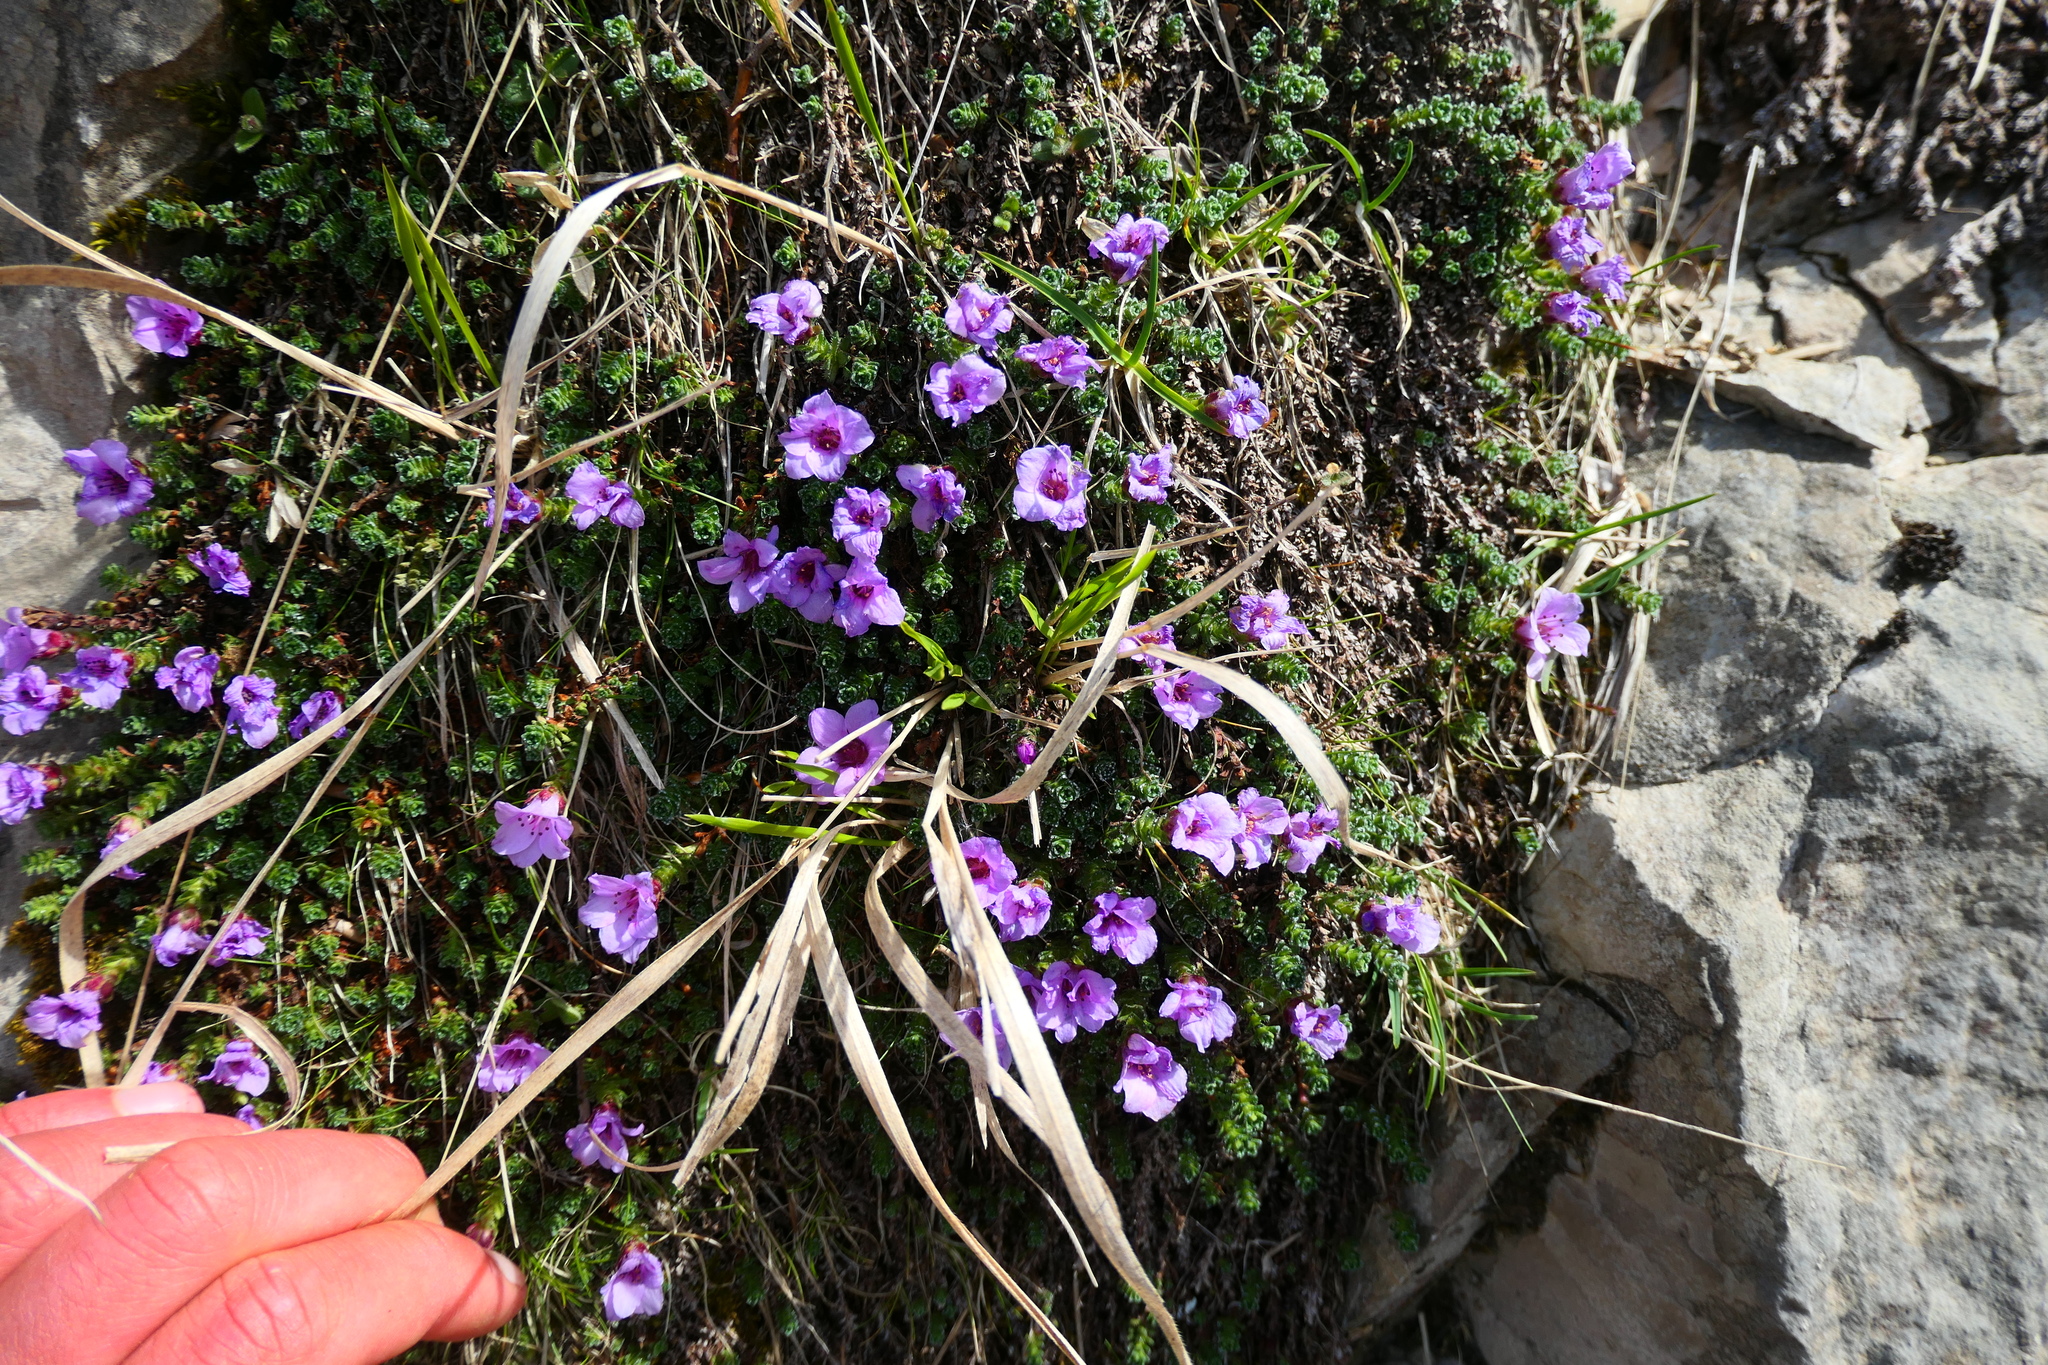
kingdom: Plantae
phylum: Tracheophyta
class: Magnoliopsida
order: Saxifragales
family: Saxifragaceae
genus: Saxifraga
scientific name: Saxifraga oppositifolia
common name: Purple saxifrage
